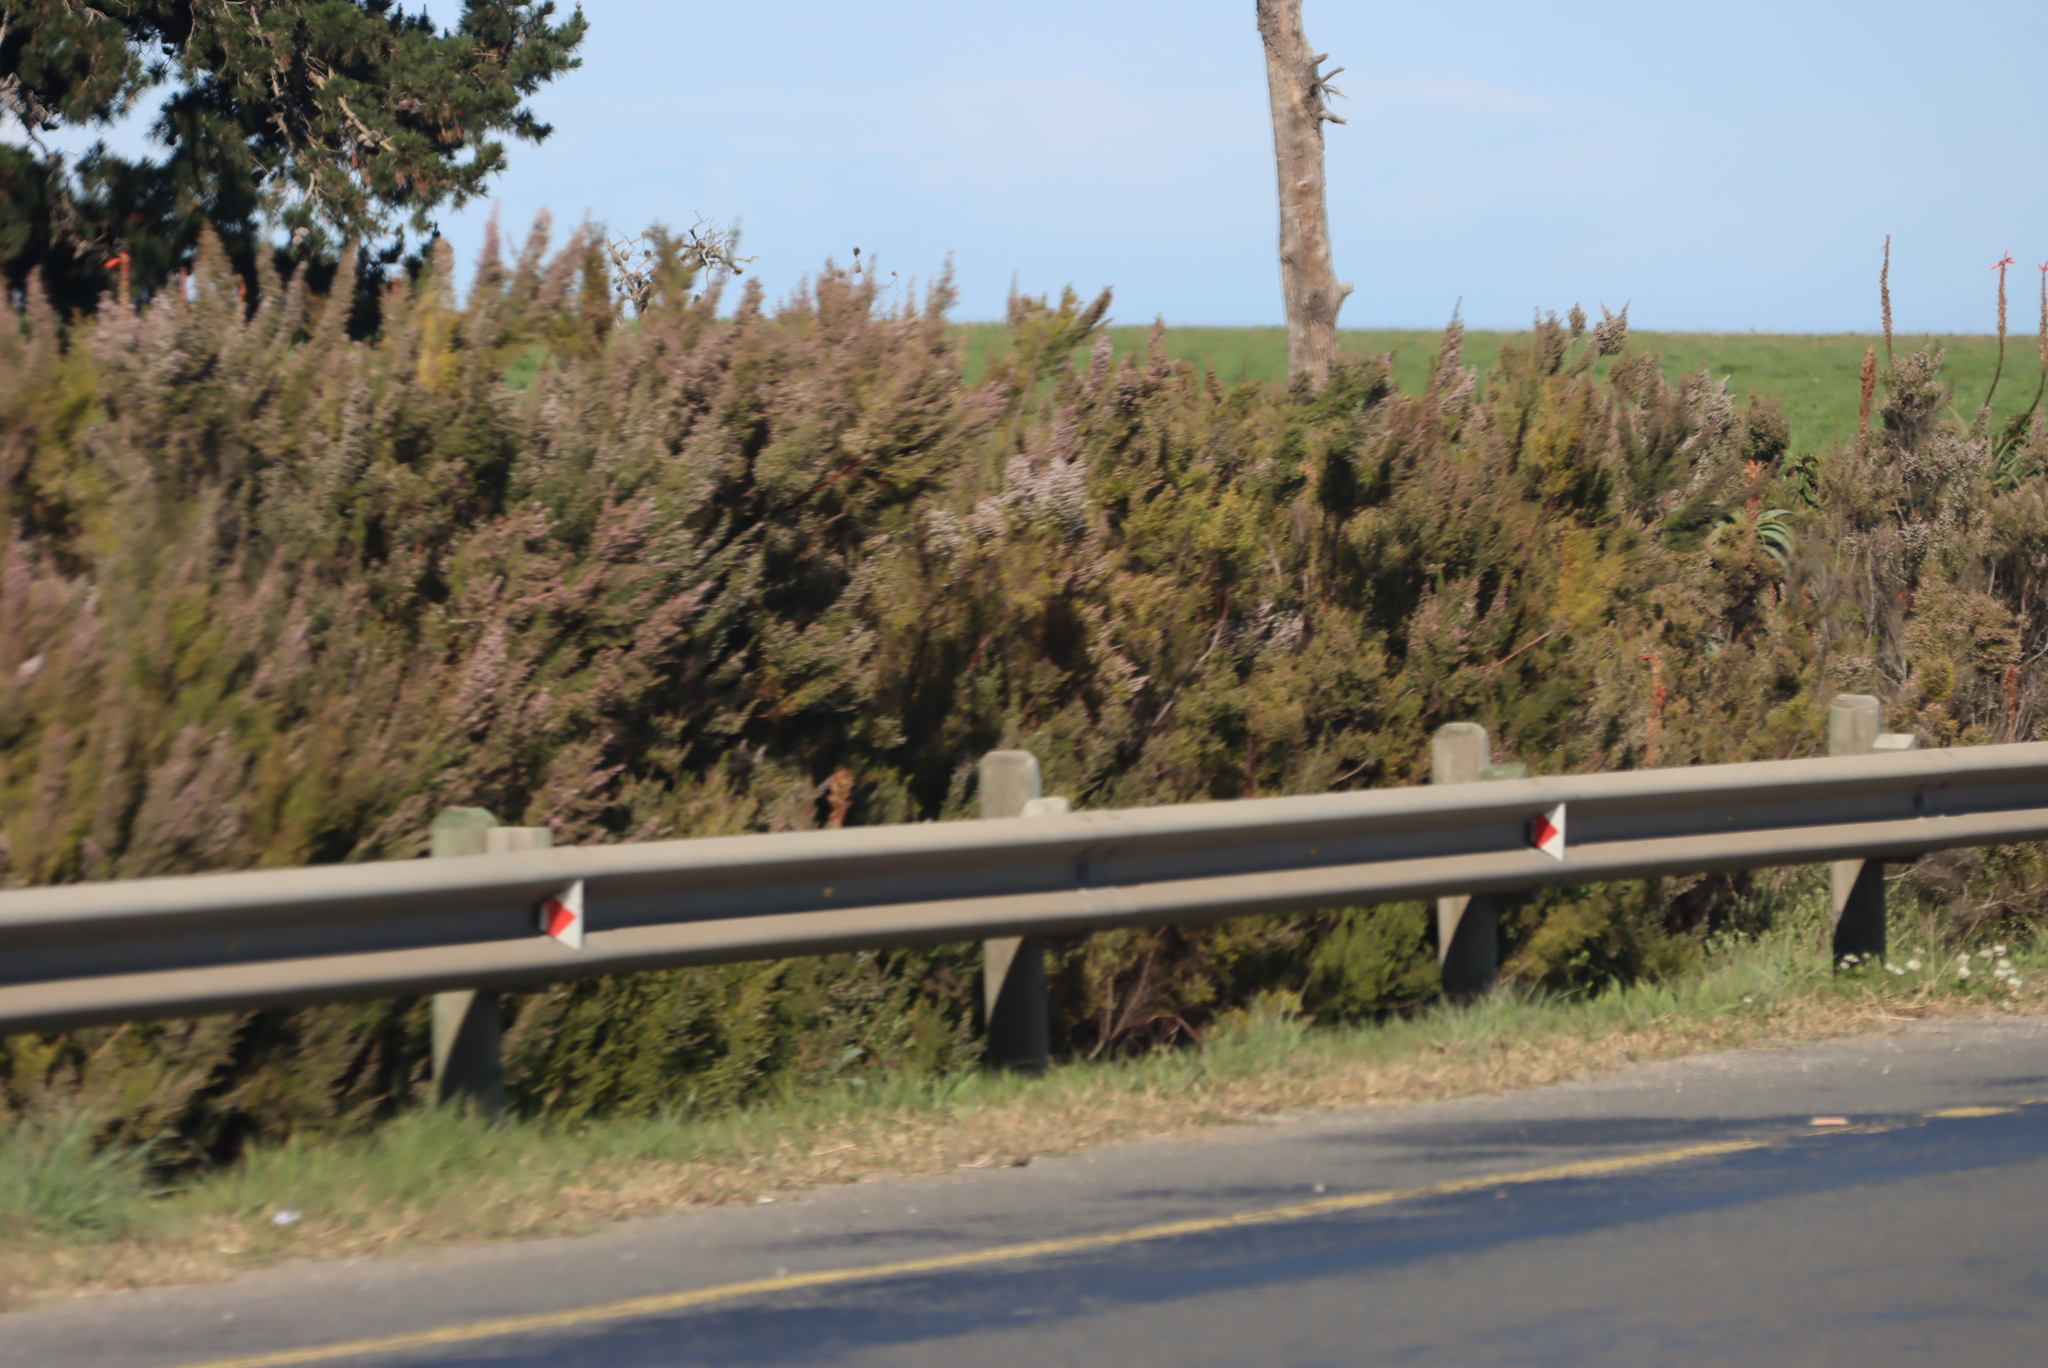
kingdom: Plantae
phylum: Tracheophyta
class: Magnoliopsida
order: Ericales
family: Ericaceae
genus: Erica
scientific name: Erica sparsa
